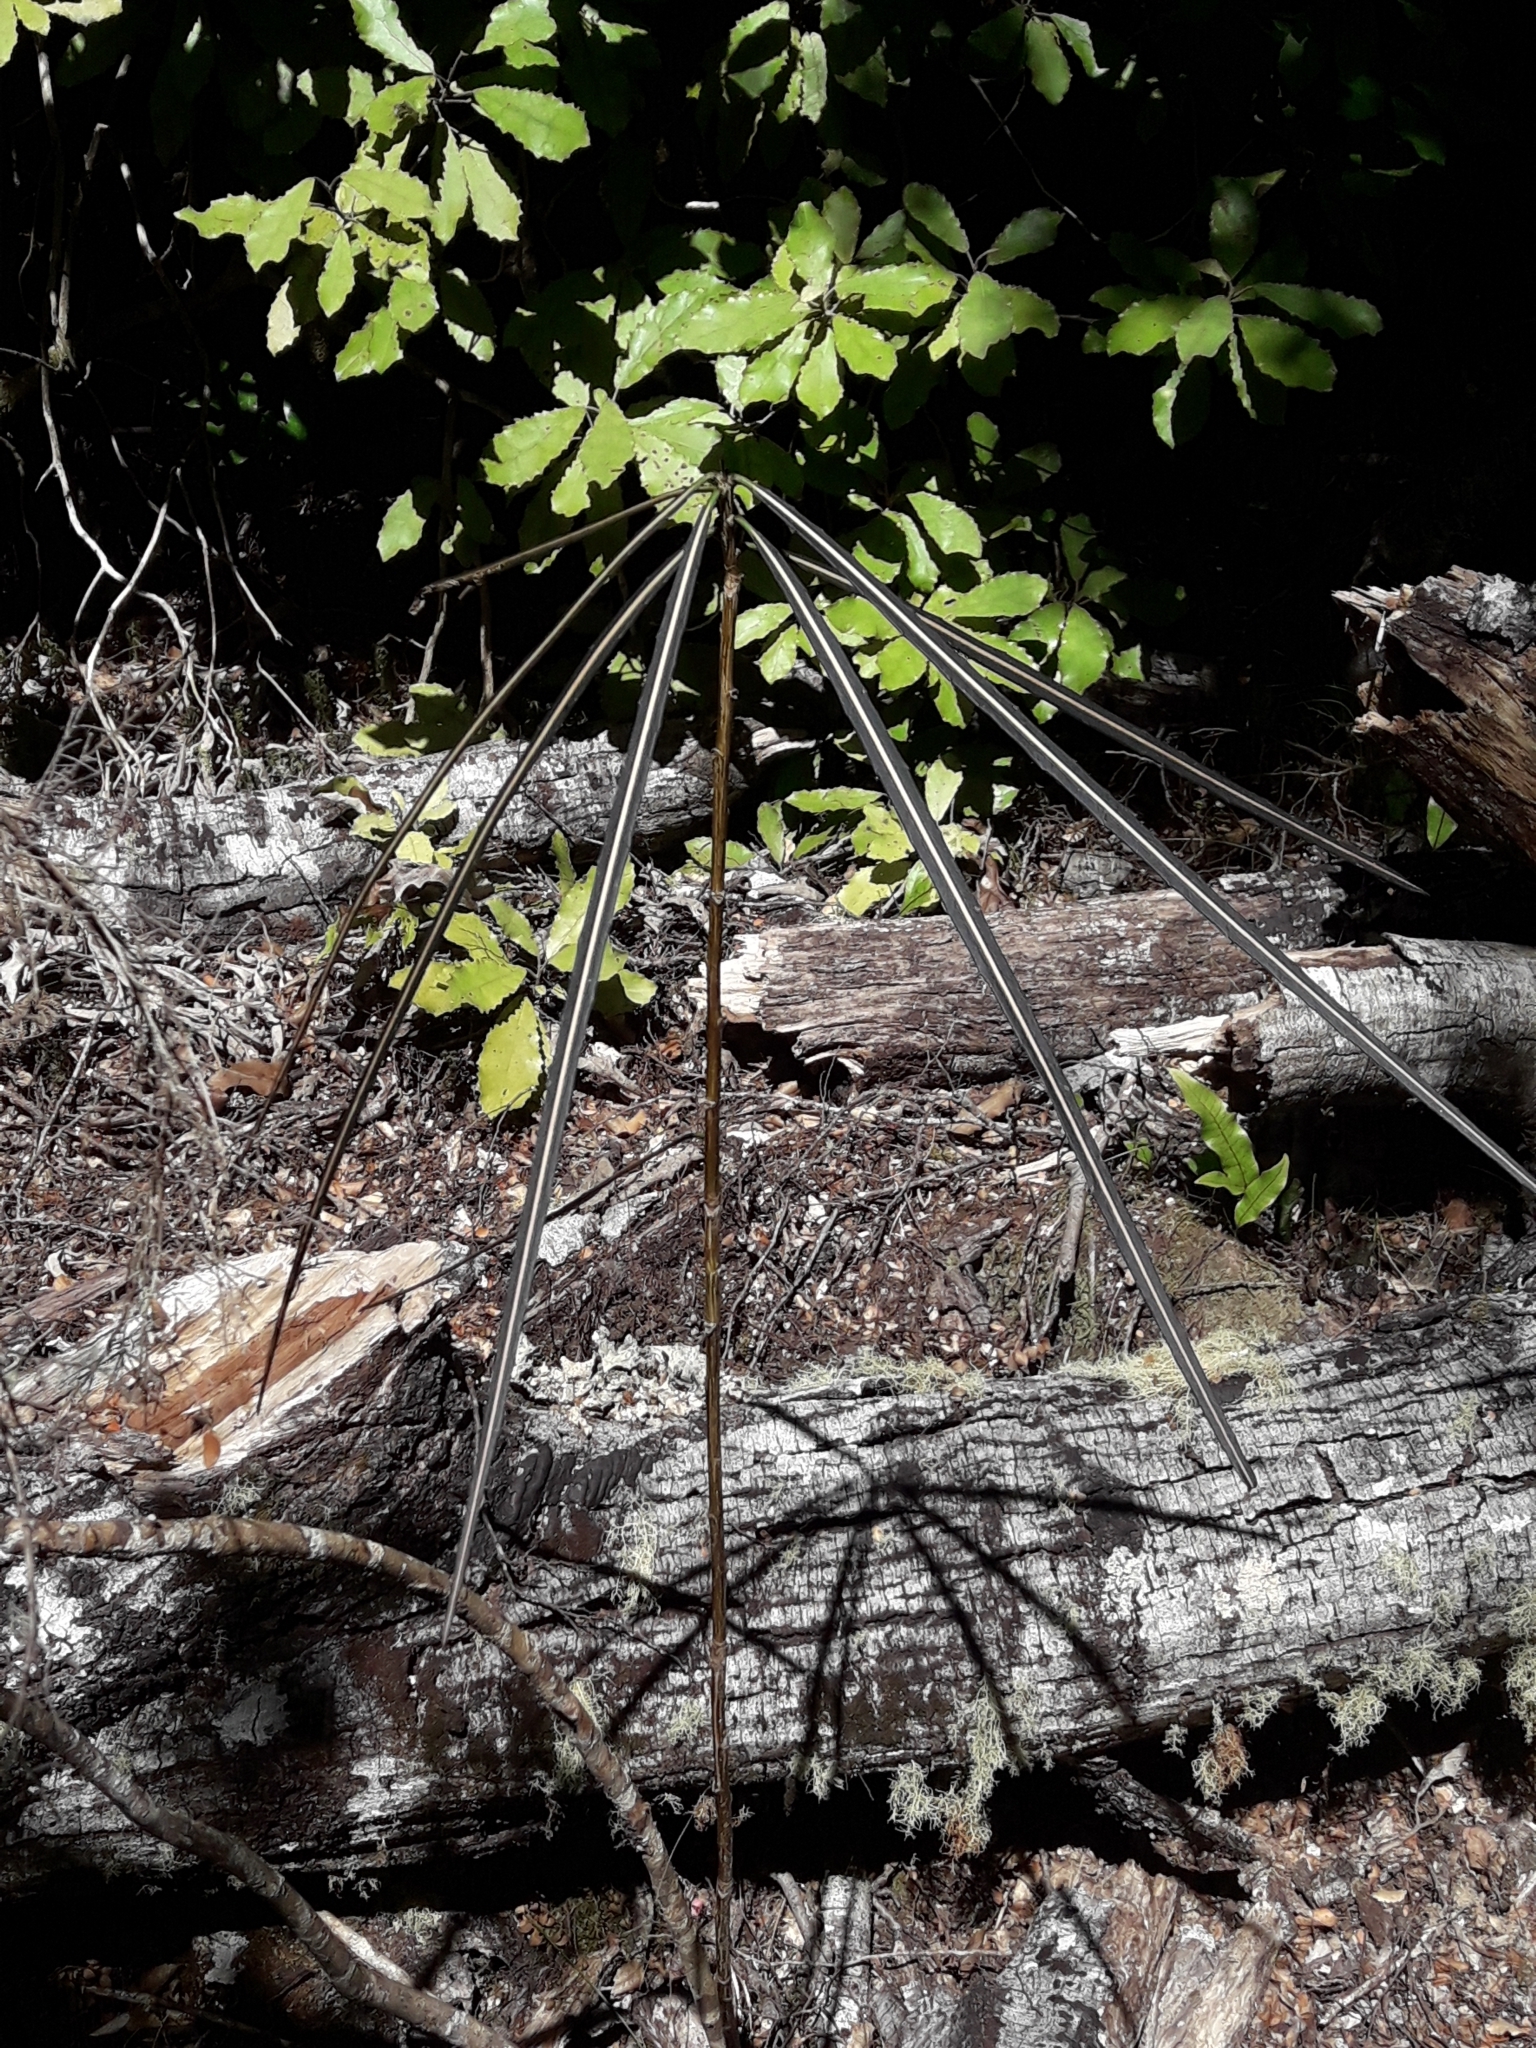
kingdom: Plantae
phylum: Tracheophyta
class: Magnoliopsida
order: Apiales
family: Araliaceae
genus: Pseudopanax
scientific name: Pseudopanax crassifolius
